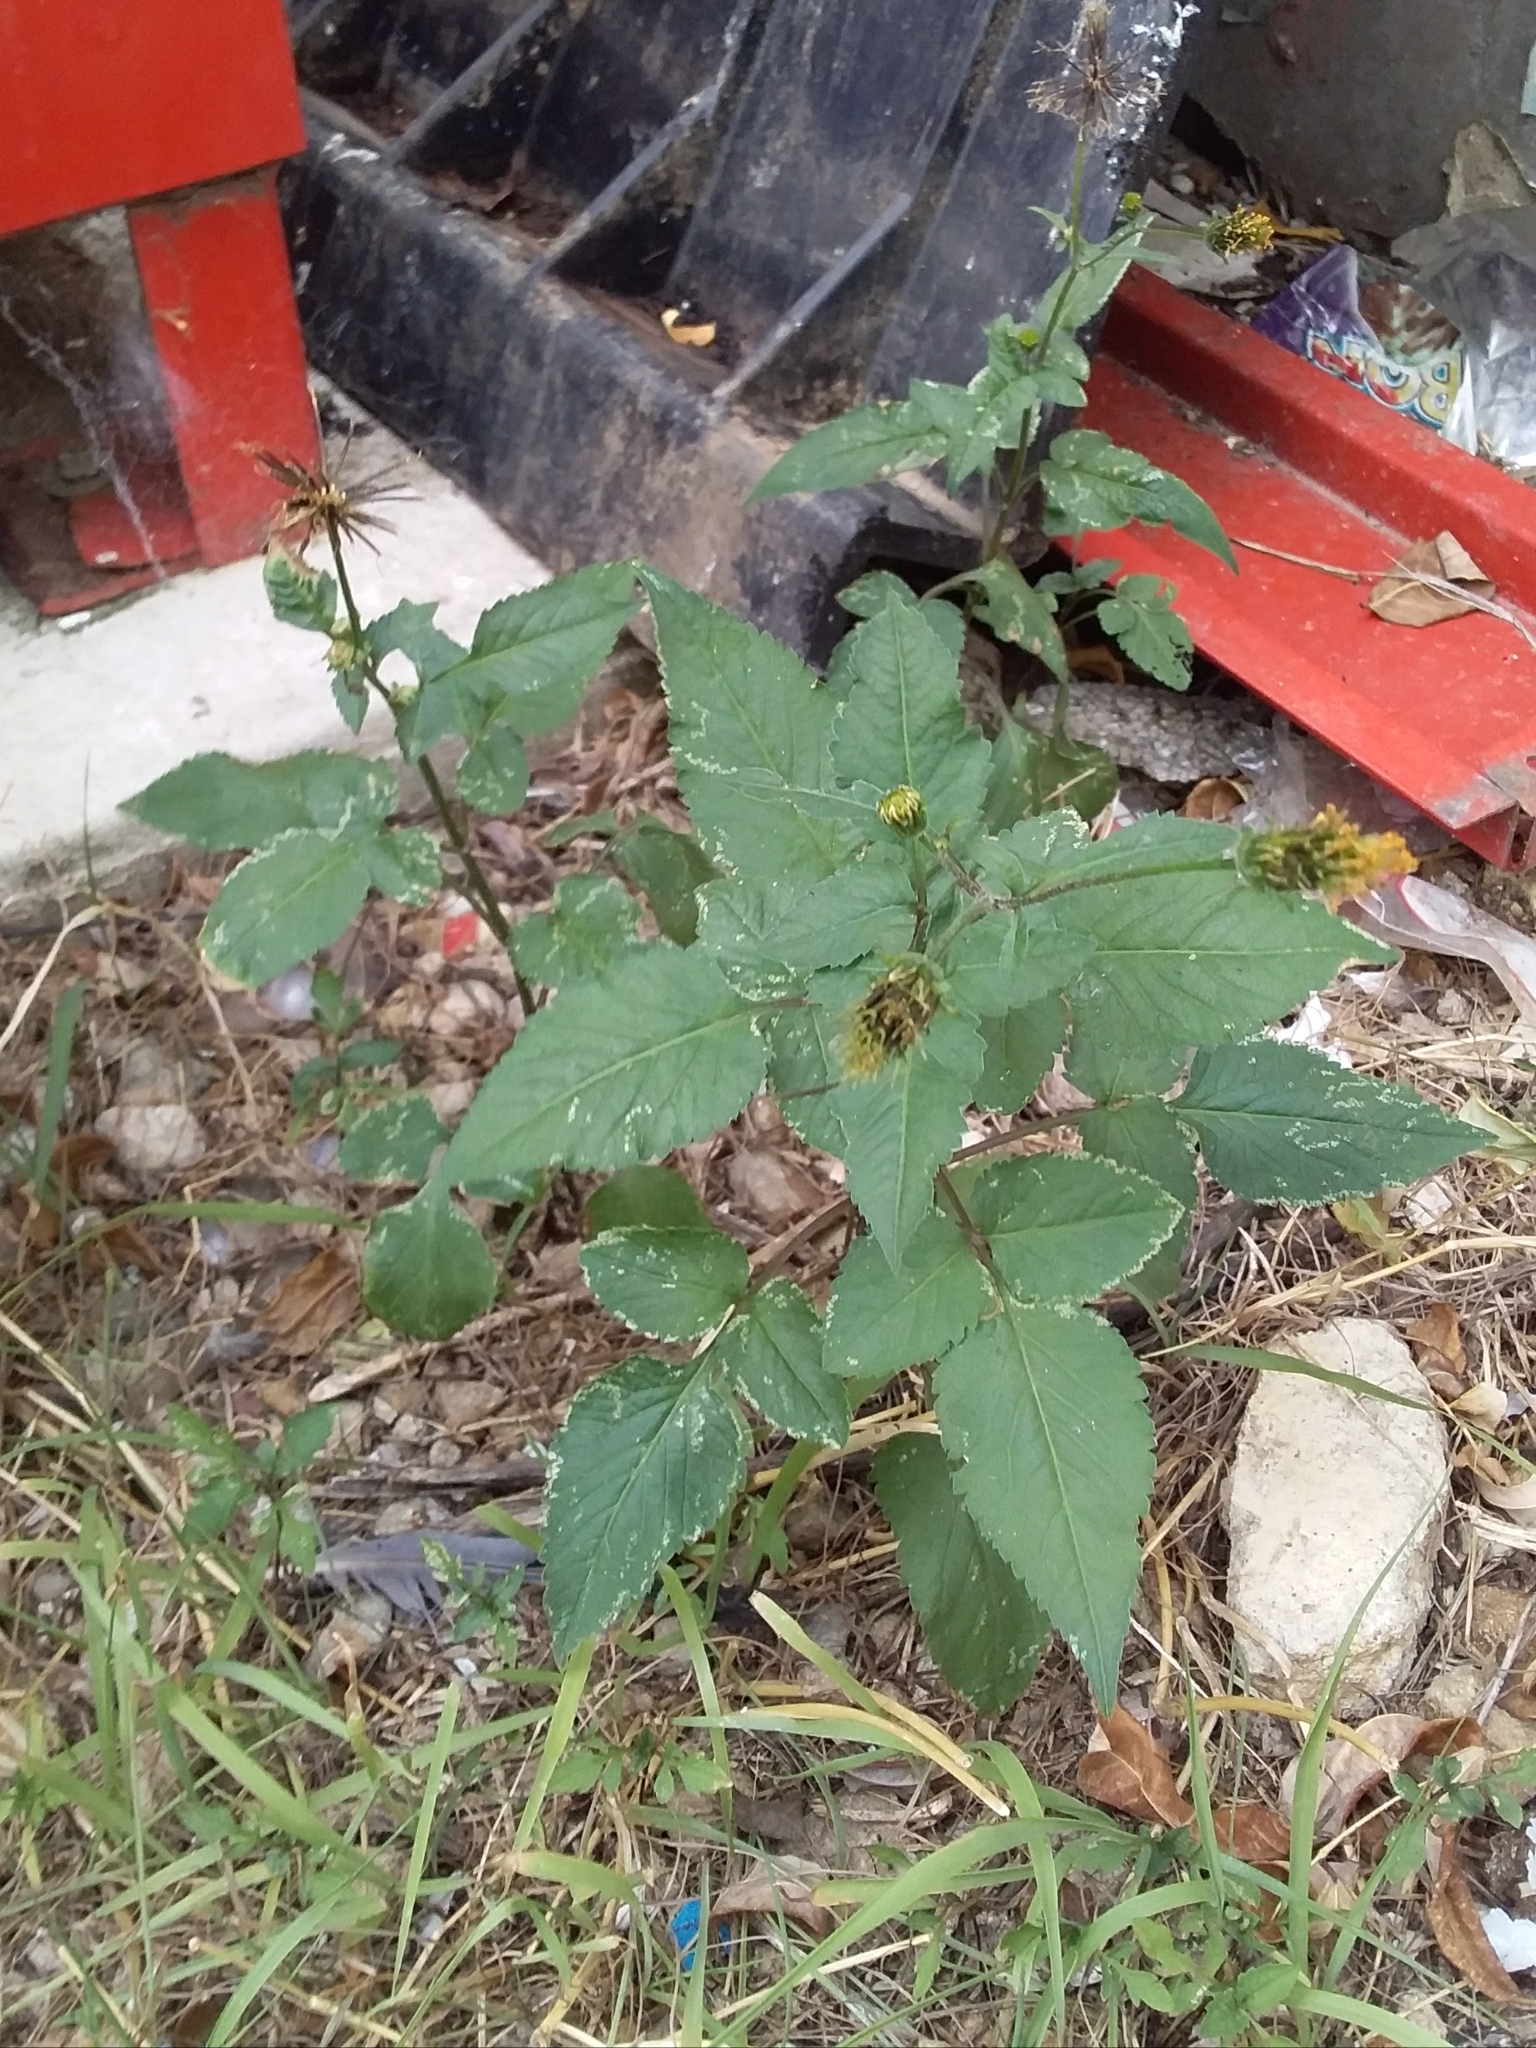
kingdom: Plantae
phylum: Tracheophyta
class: Magnoliopsida
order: Asterales
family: Asteraceae
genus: Bidens
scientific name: Bidens pilosa
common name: Black-jack
